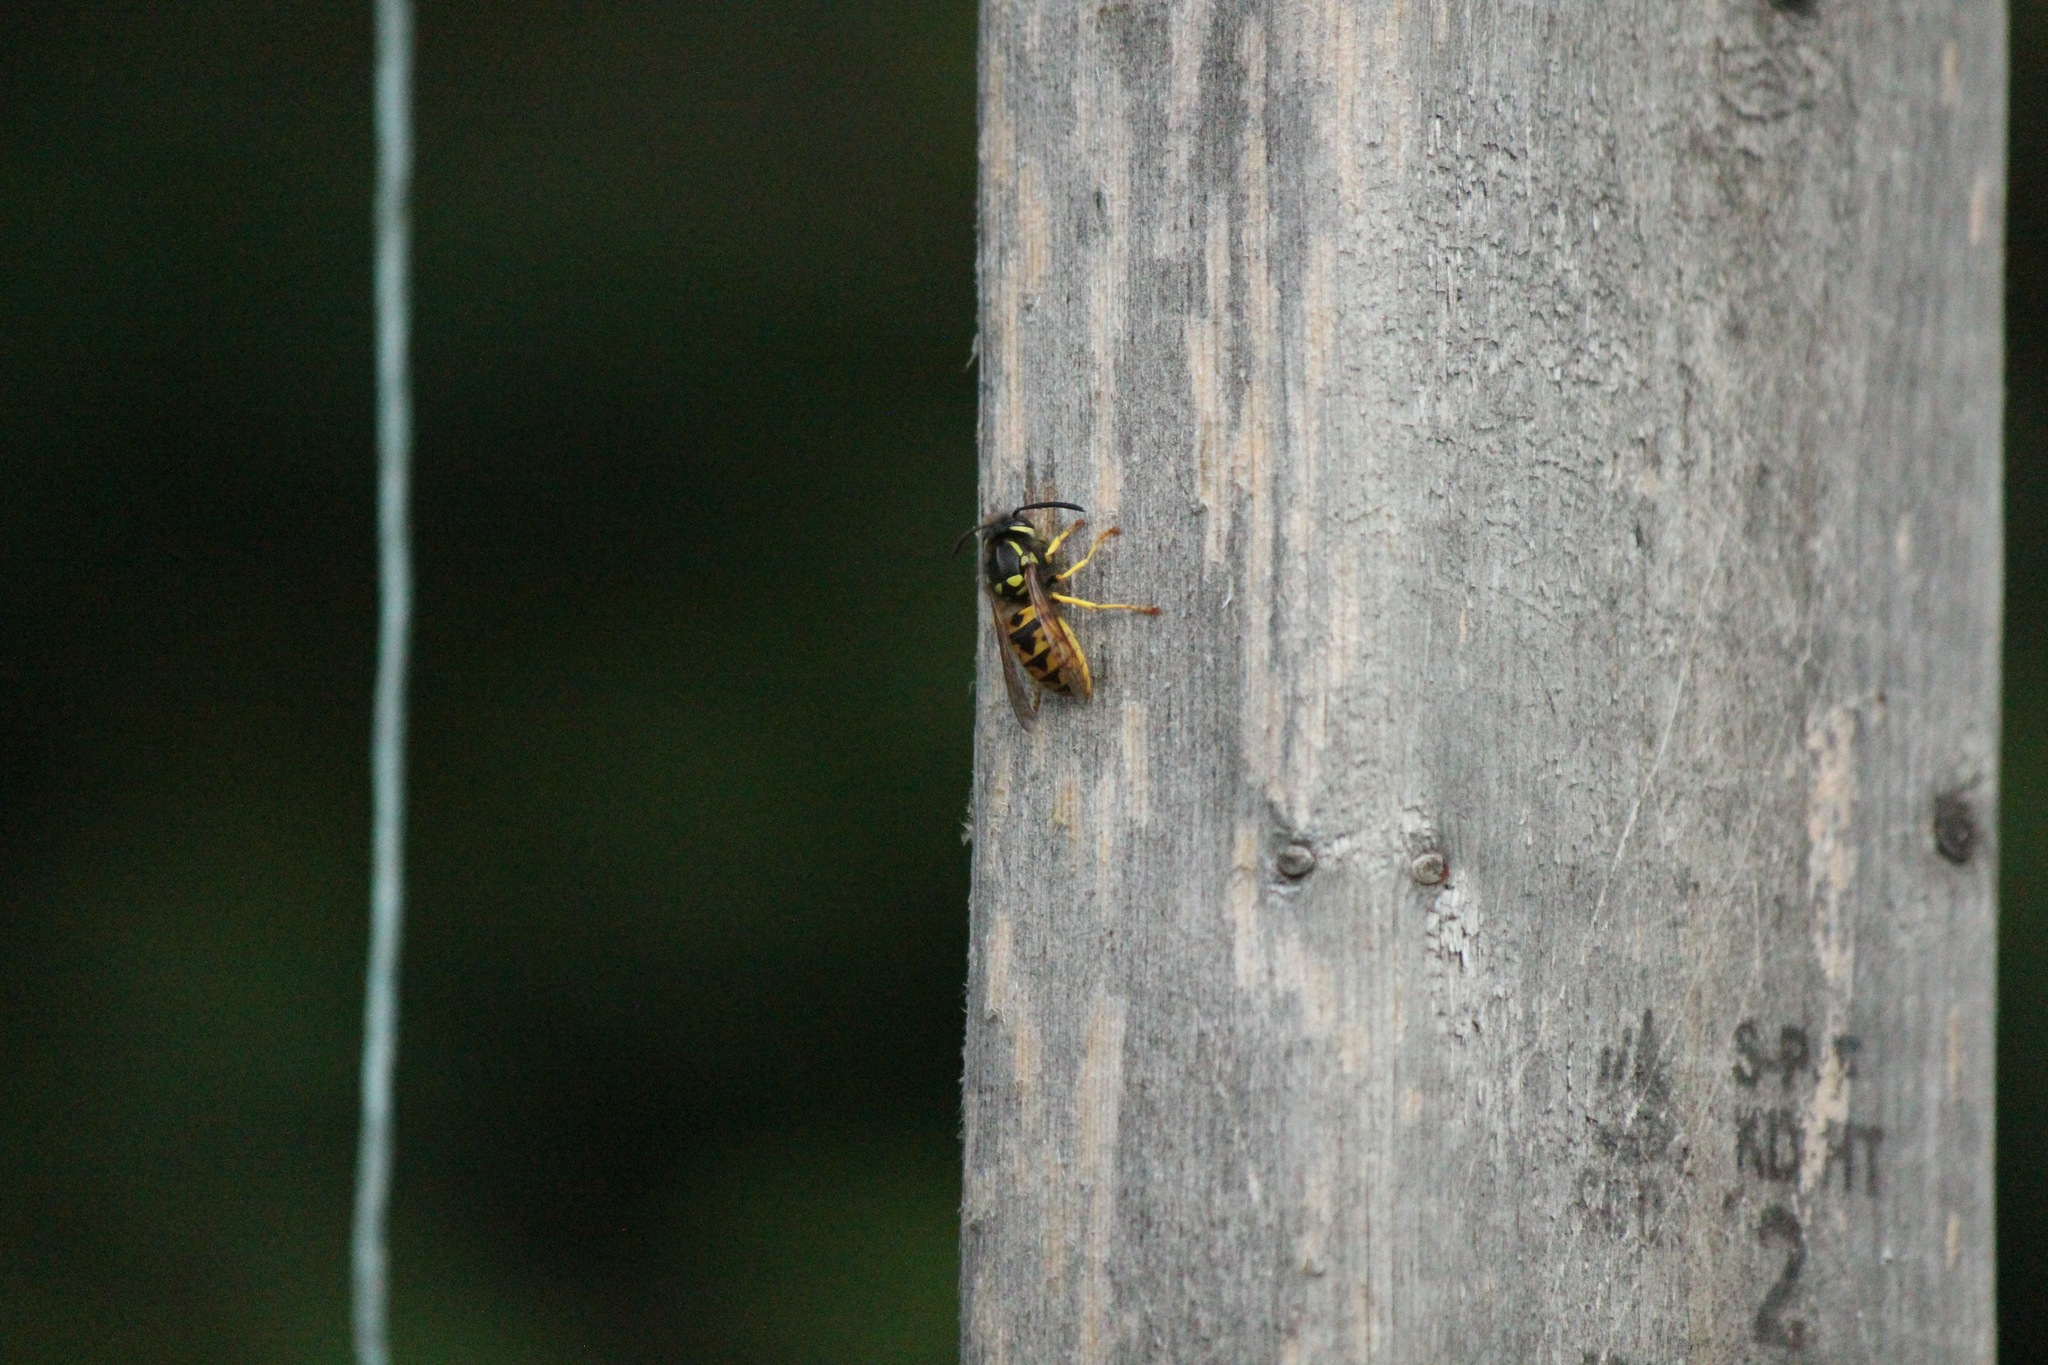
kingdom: Animalia
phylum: Arthropoda
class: Insecta
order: Hymenoptera
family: Vespidae
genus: Vespula
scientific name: Vespula germanica
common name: German wasp
